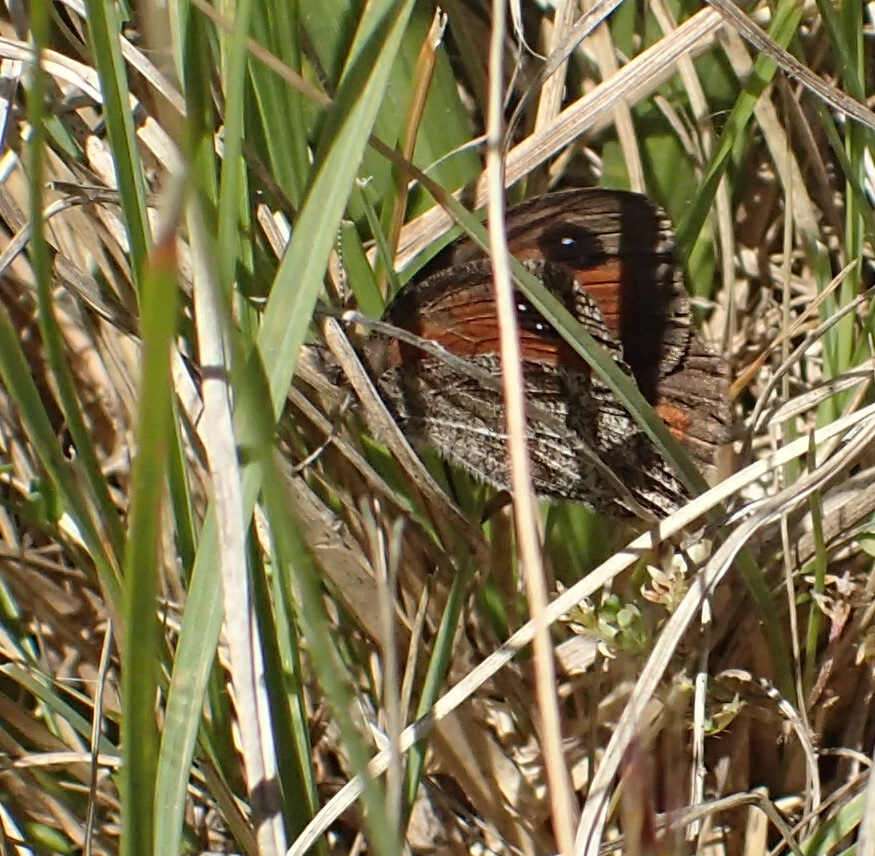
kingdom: Animalia
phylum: Arthropoda
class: Insecta
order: Lepidoptera
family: Nymphalidae
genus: Pseudonympha
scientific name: Pseudonympha magus
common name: Silver-bottom brown
